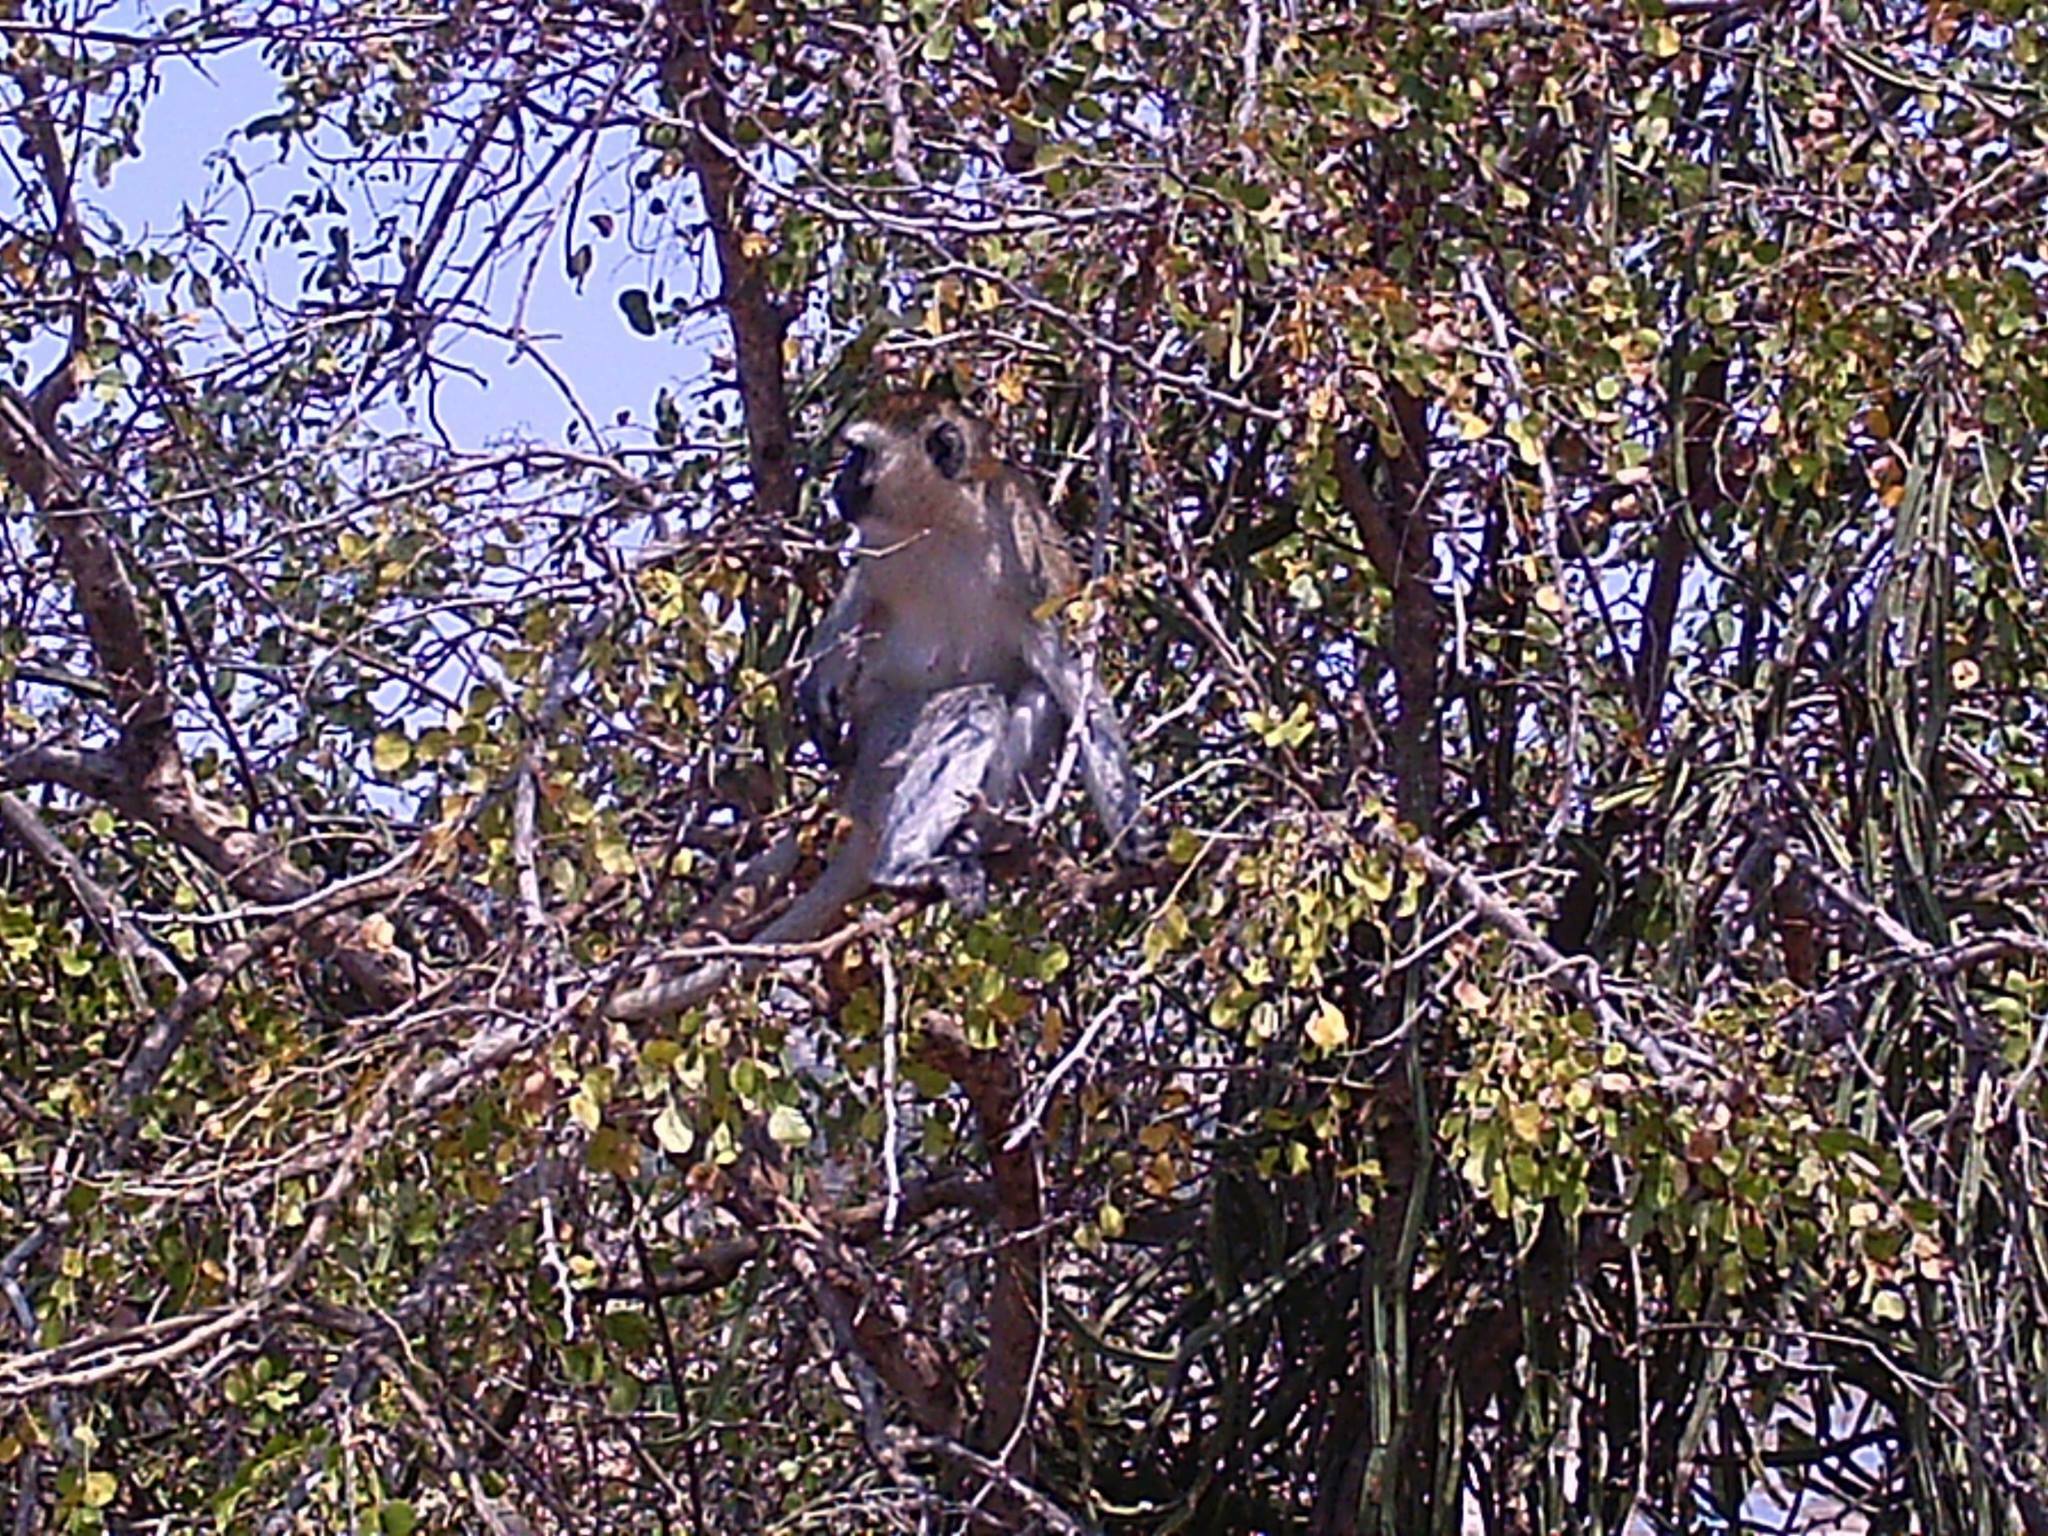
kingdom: Animalia
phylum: Chordata
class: Mammalia
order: Primates
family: Cercopithecidae
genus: Chlorocebus
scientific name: Chlorocebus pygerythrus
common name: Vervet monkey
